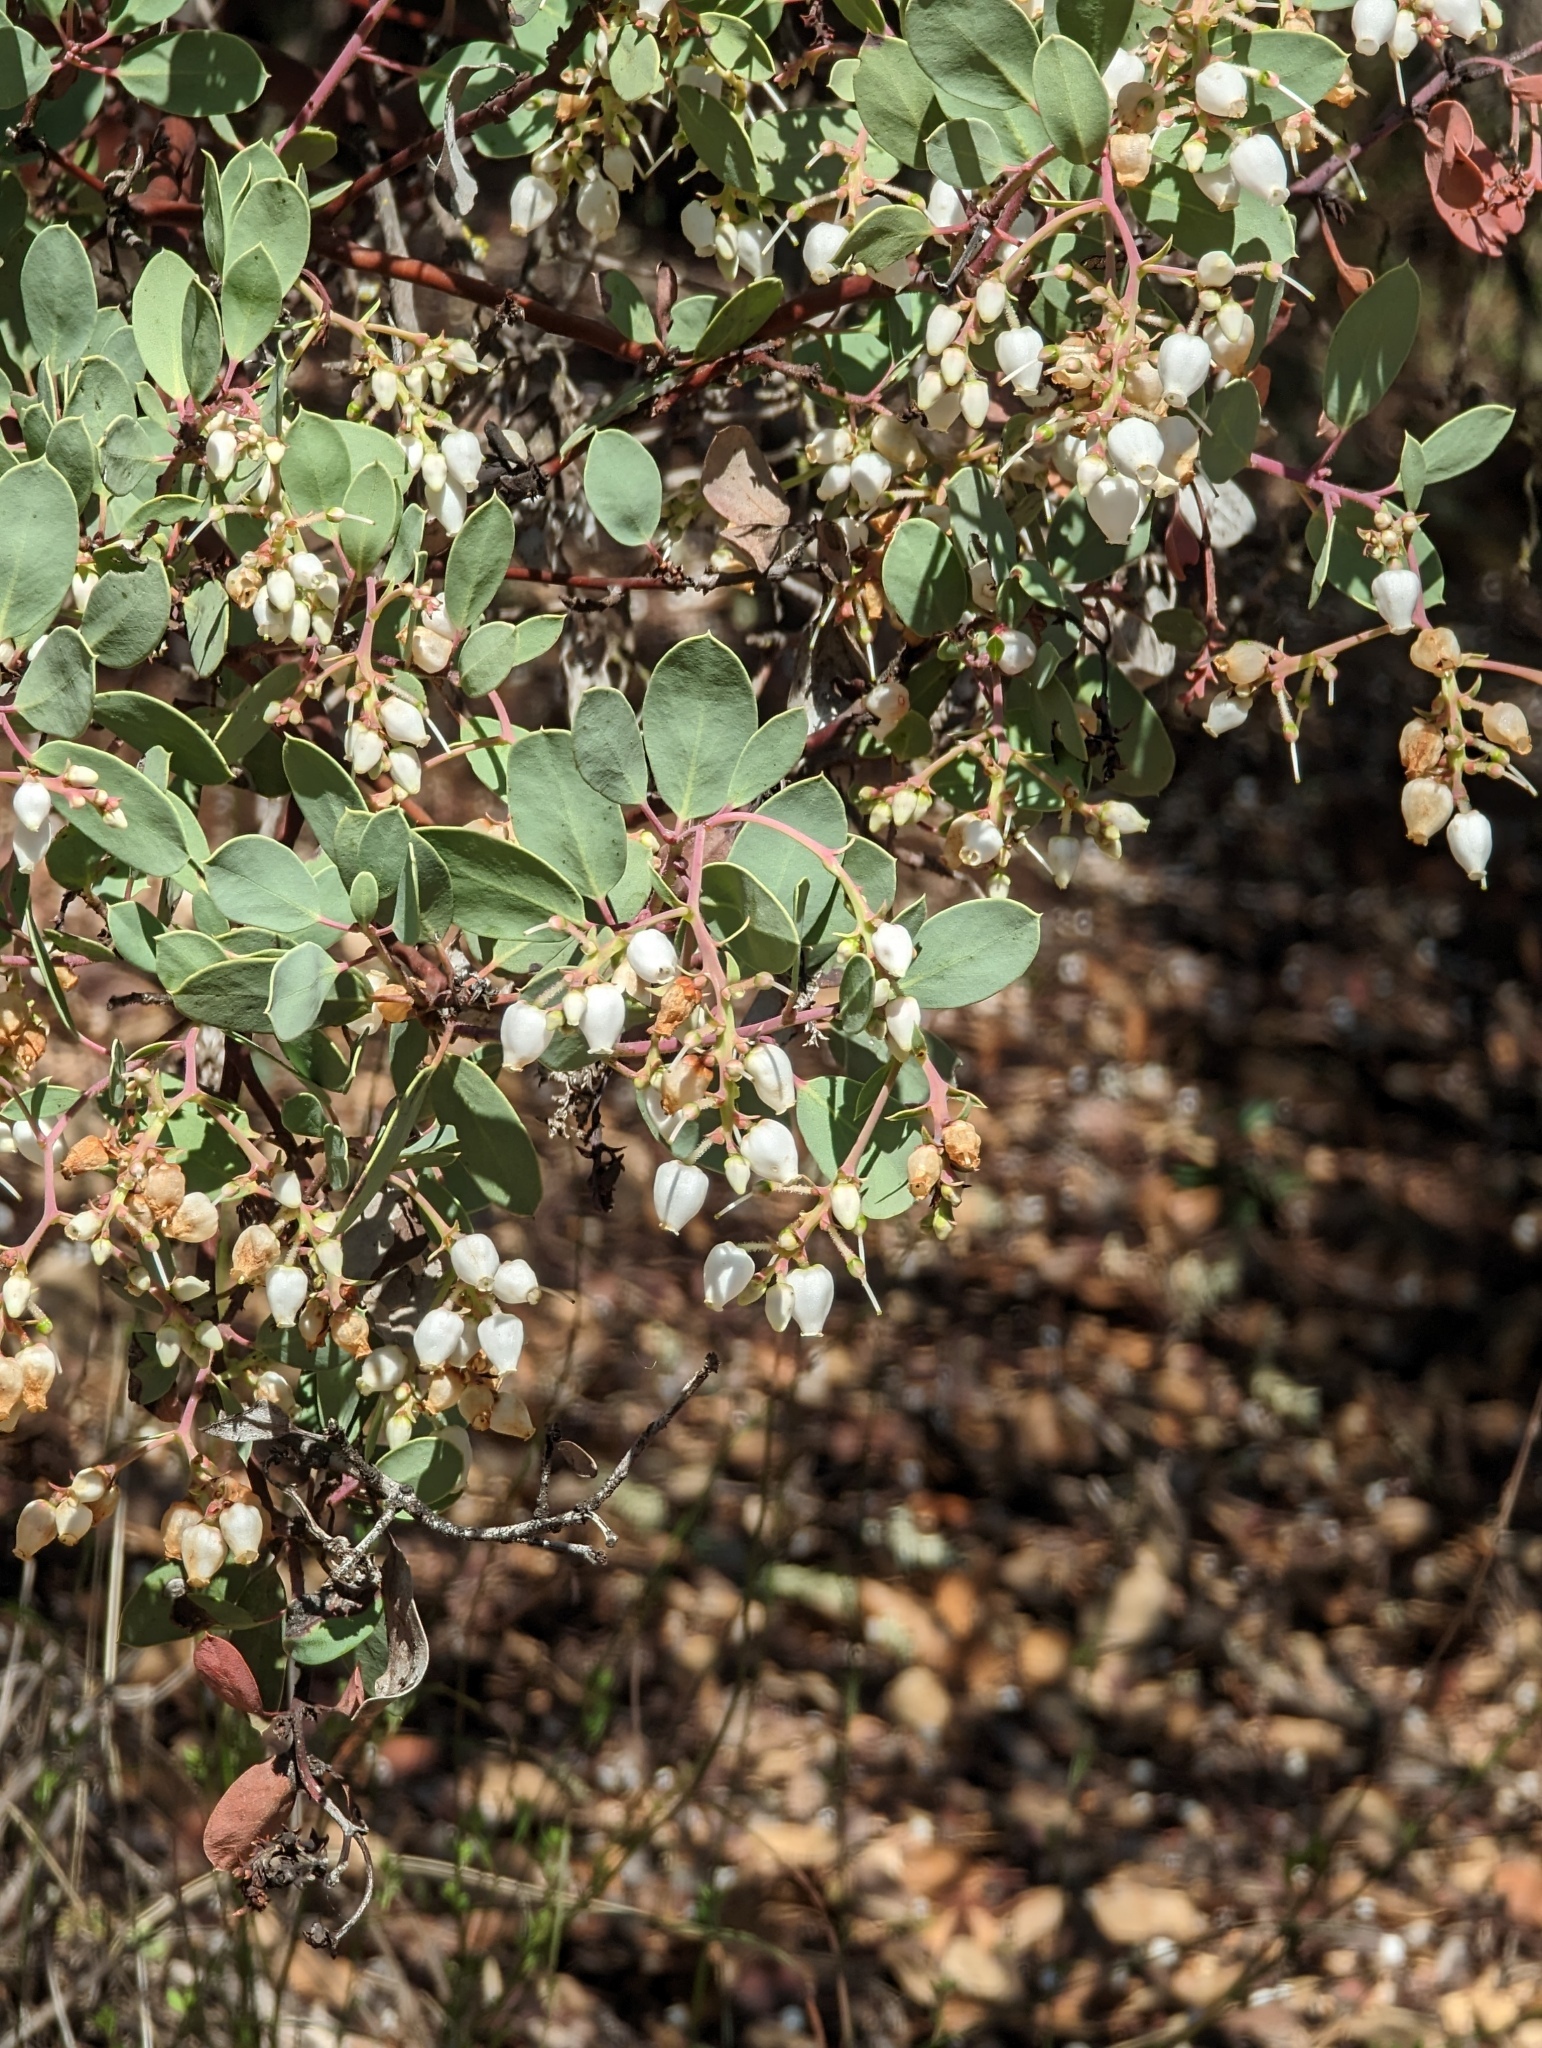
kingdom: Plantae
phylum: Tracheophyta
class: Magnoliopsida
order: Ericales
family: Ericaceae
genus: Arctostaphylos
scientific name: Arctostaphylos glauca
